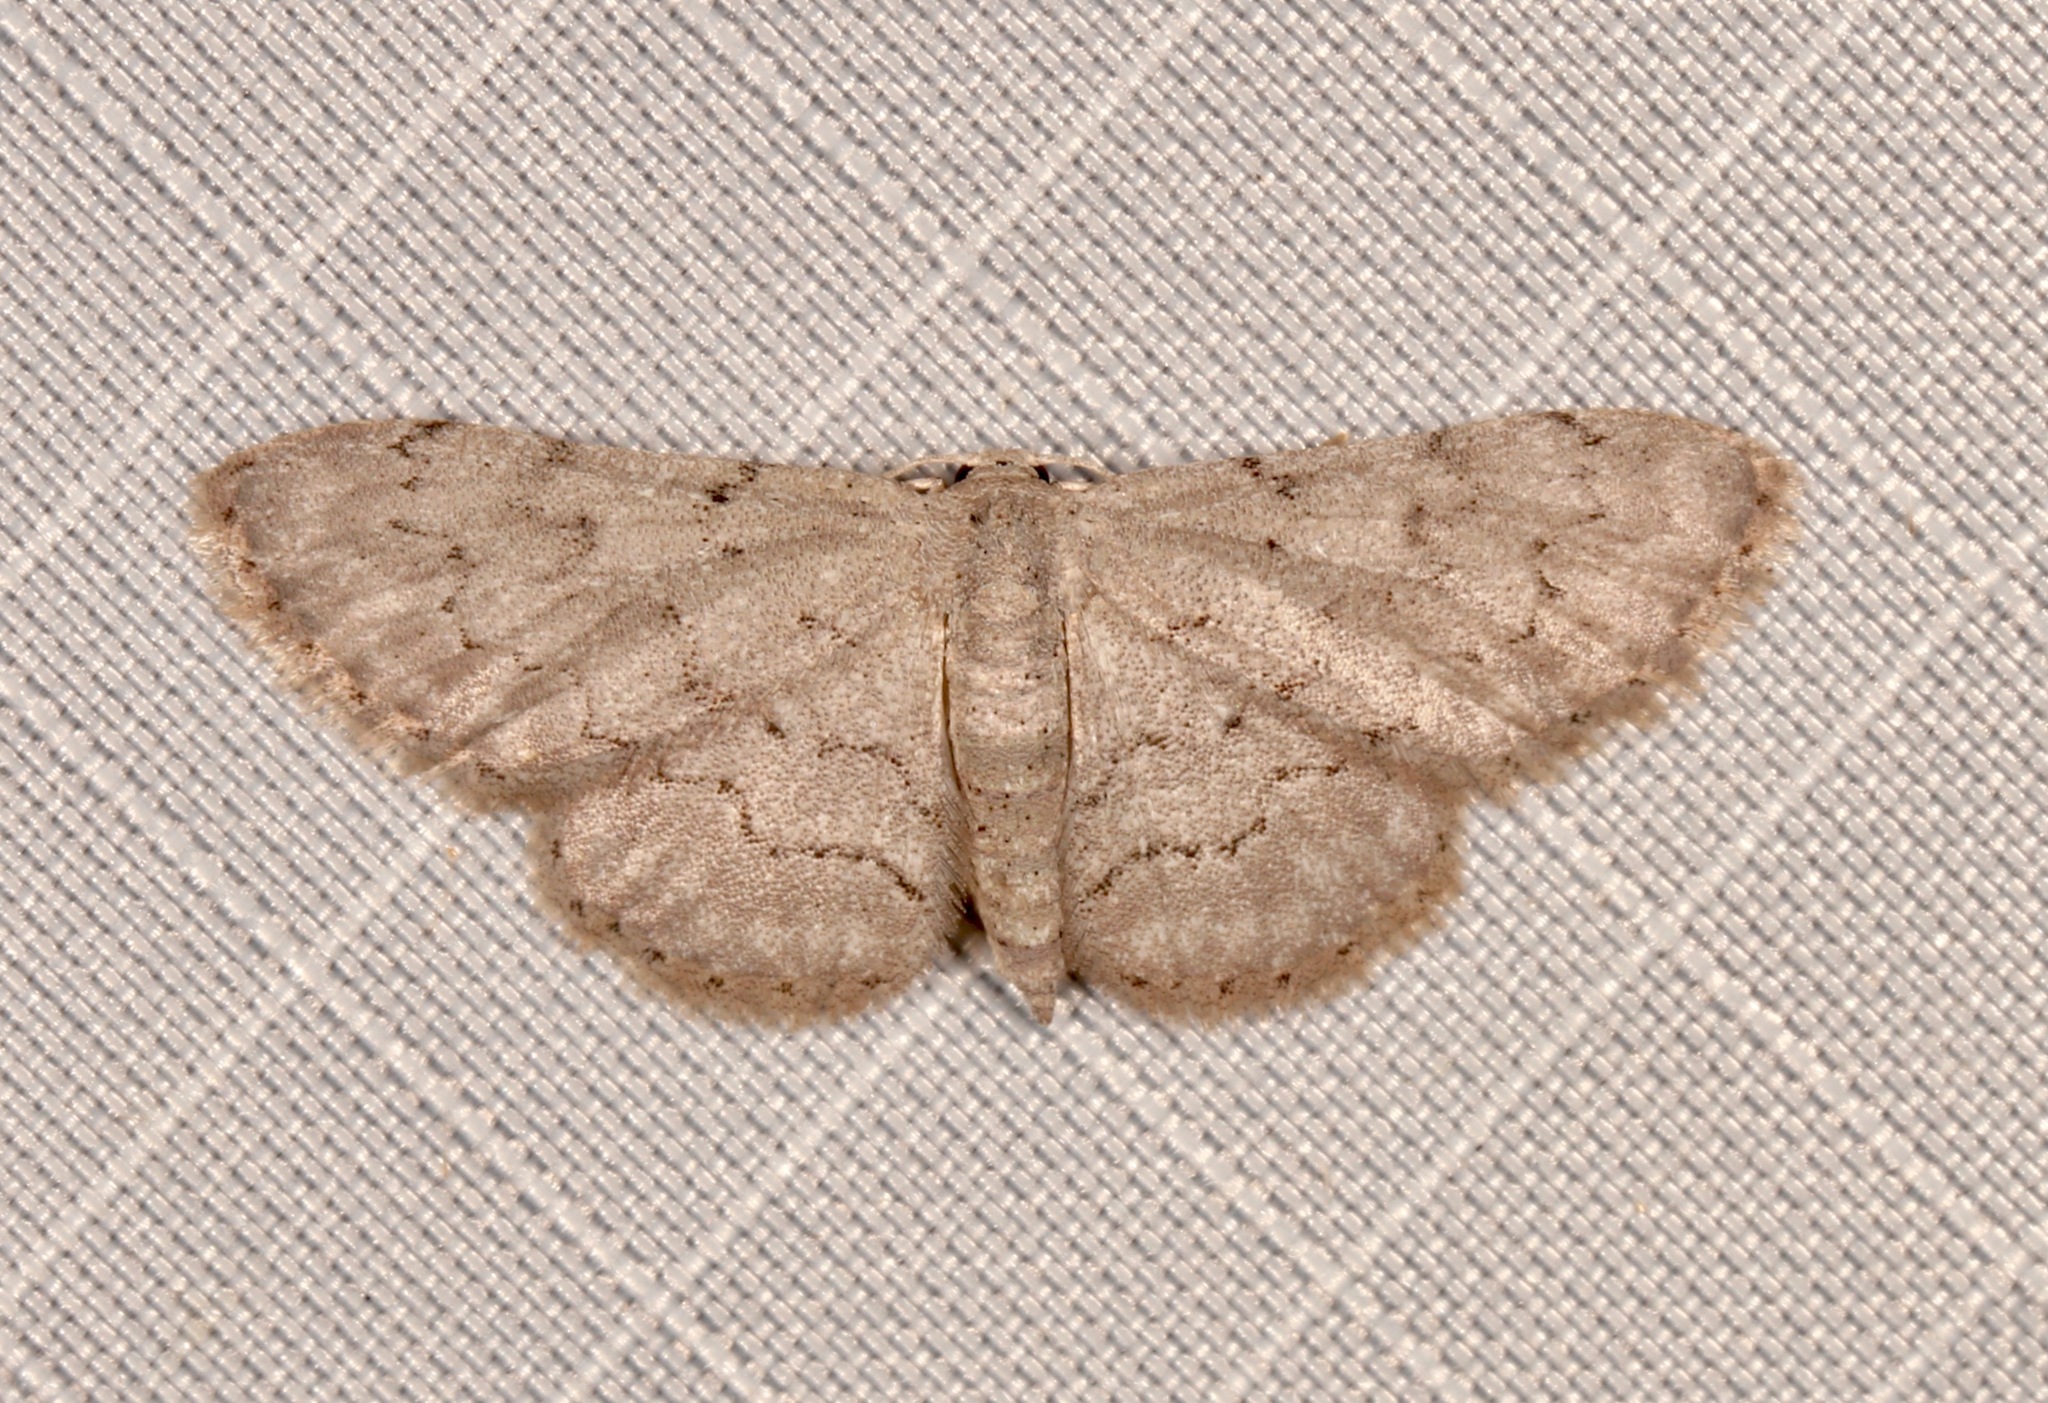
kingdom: Animalia
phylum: Arthropoda
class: Insecta
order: Lepidoptera
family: Geometridae
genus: Idaea
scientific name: Idaea violacearia
